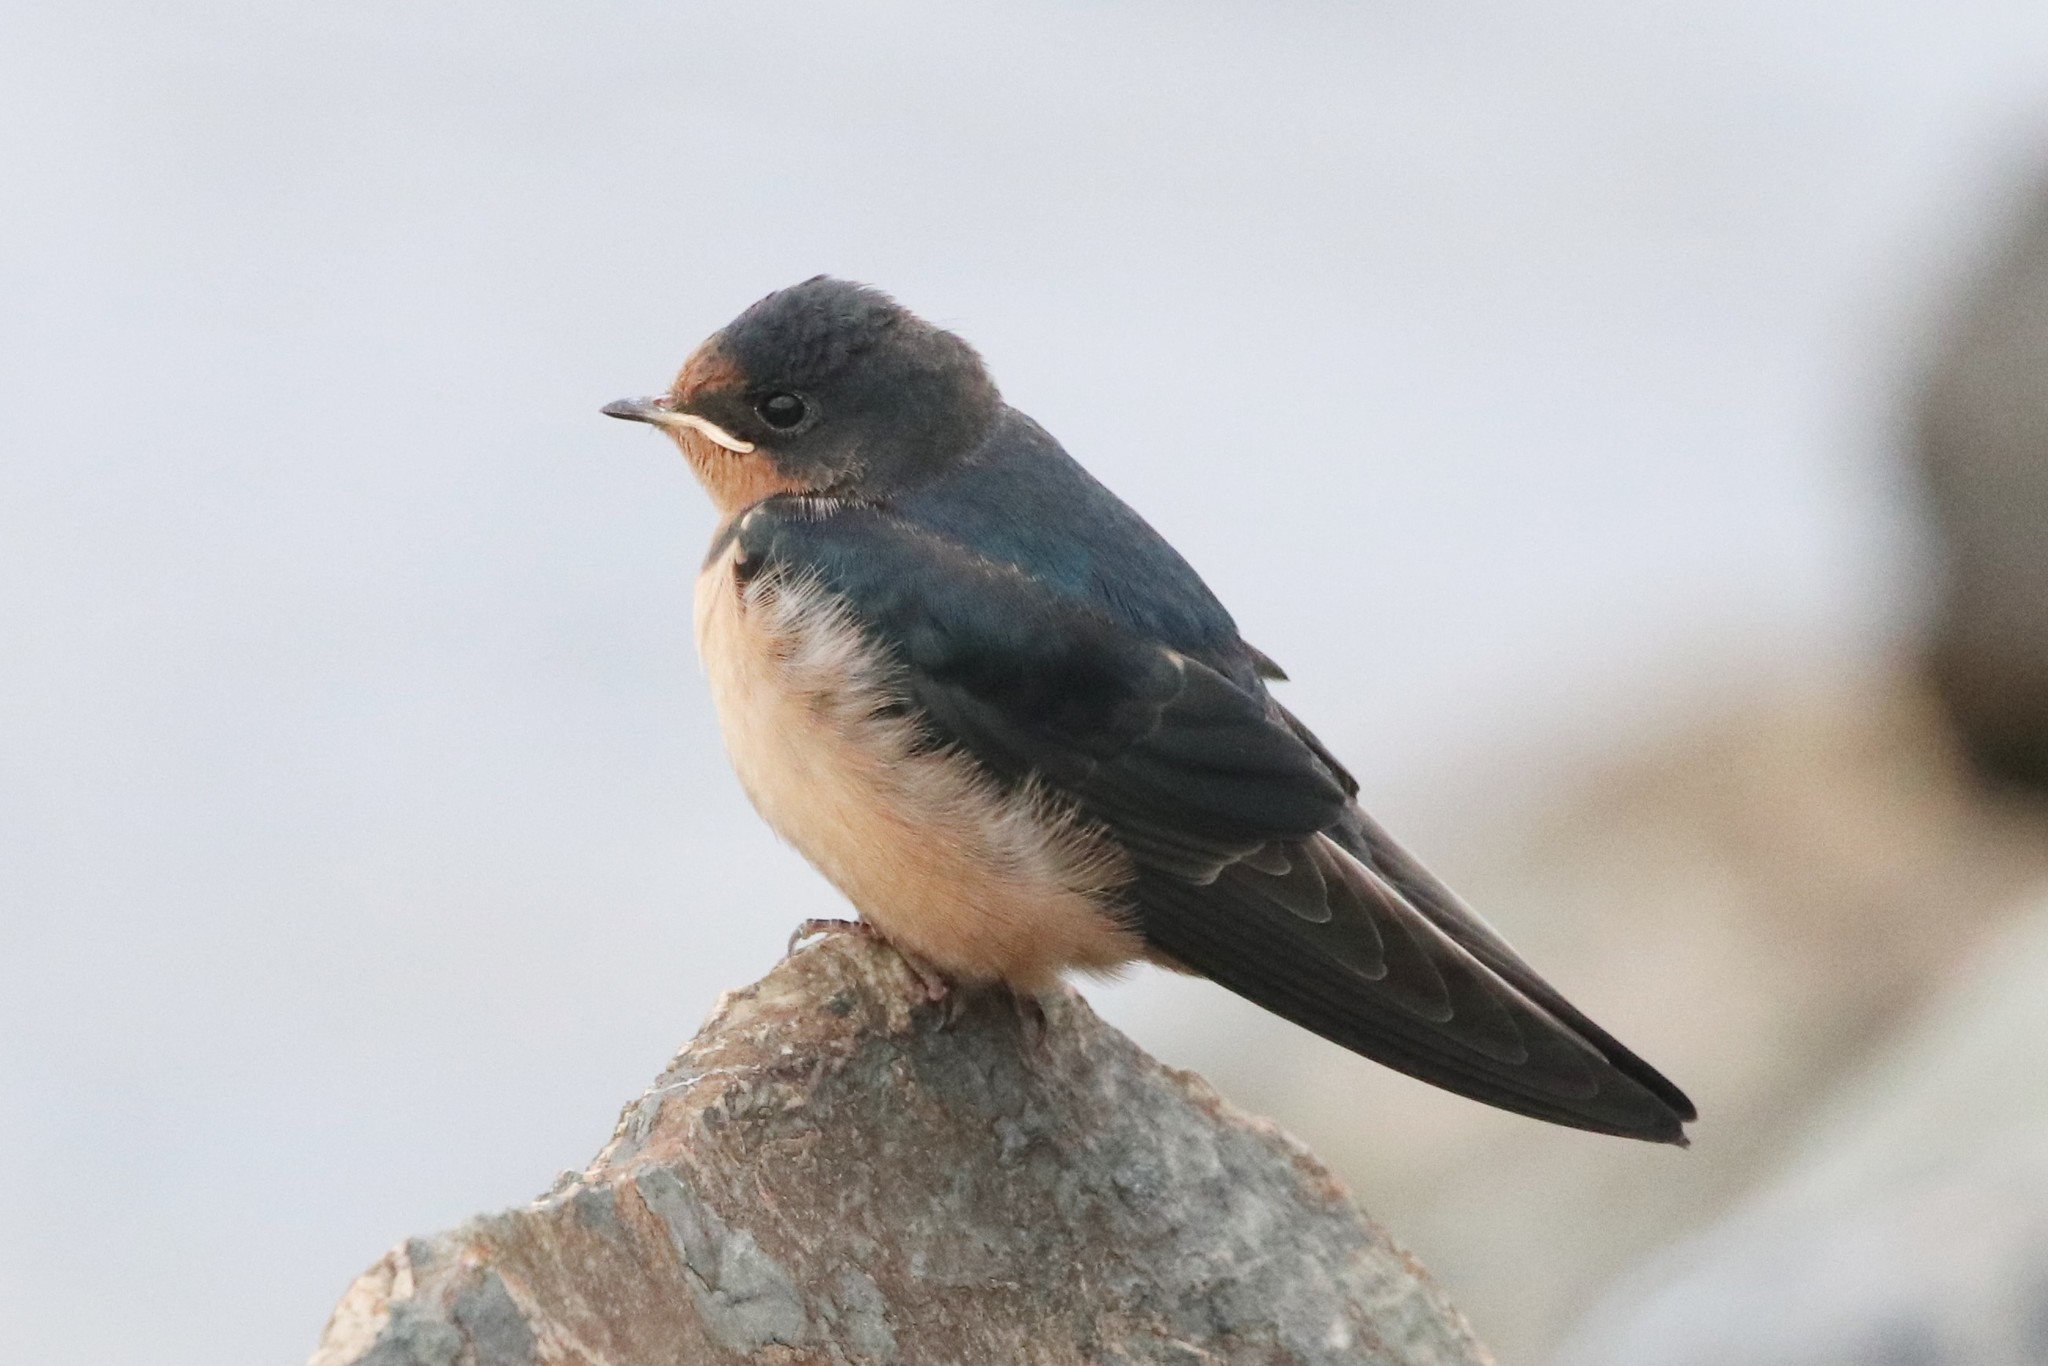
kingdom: Animalia
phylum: Chordata
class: Aves
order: Passeriformes
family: Hirundinidae
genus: Hirundo
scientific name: Hirundo rustica
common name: Barn swallow
